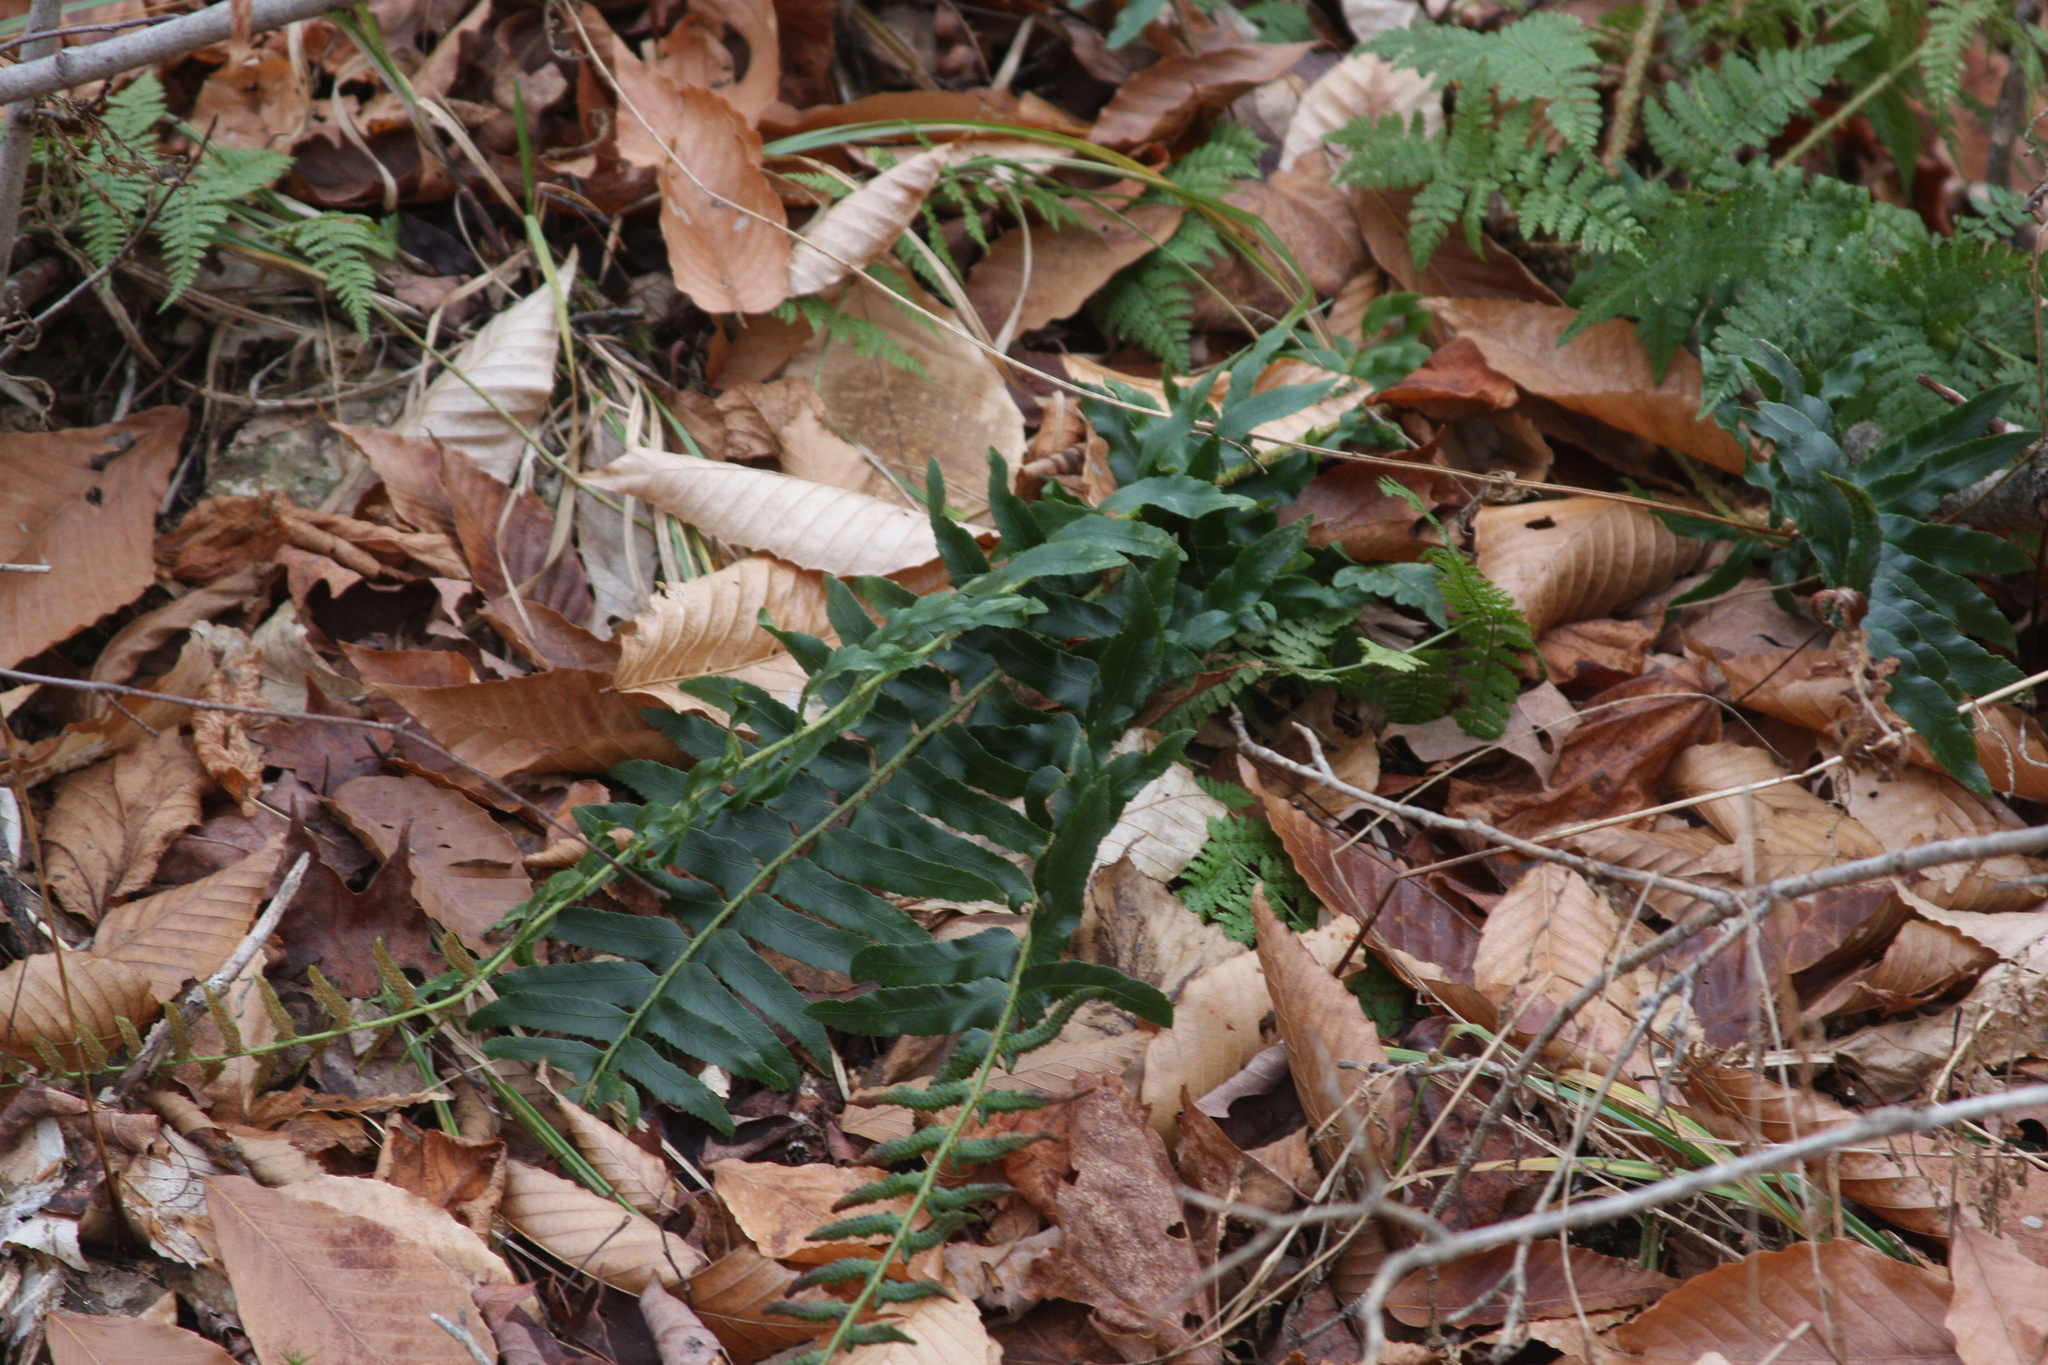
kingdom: Plantae
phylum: Tracheophyta
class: Polypodiopsida
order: Polypodiales
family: Dryopteridaceae
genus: Polystichum
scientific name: Polystichum acrostichoides
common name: Christmas fern
